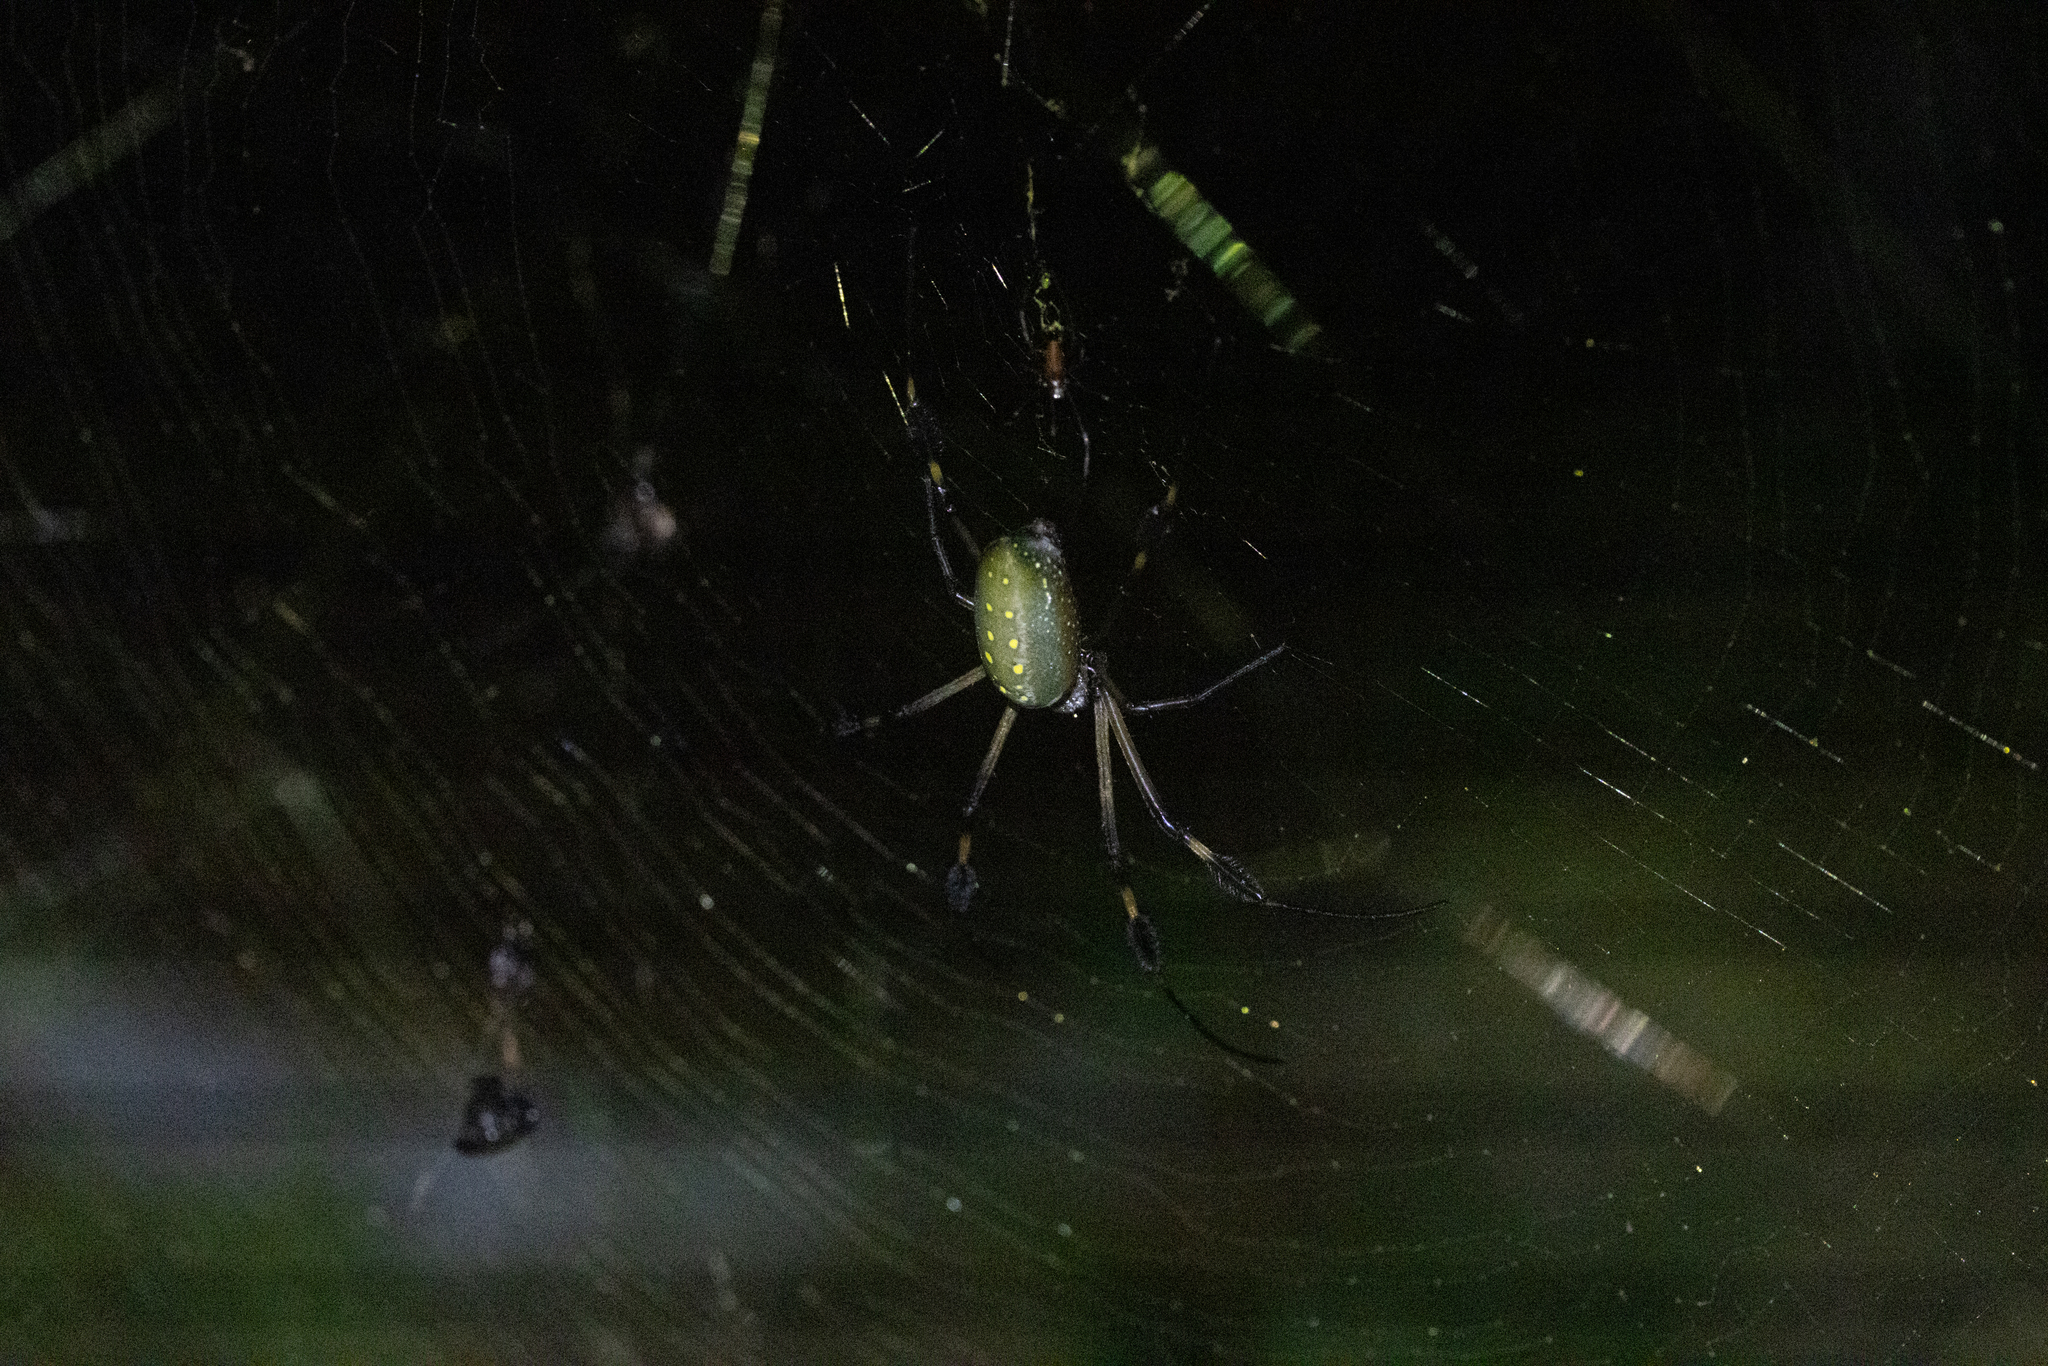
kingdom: Animalia
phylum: Arthropoda
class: Arachnida
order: Araneae
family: Araneidae
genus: Trichonephila
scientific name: Trichonephila clavipes
